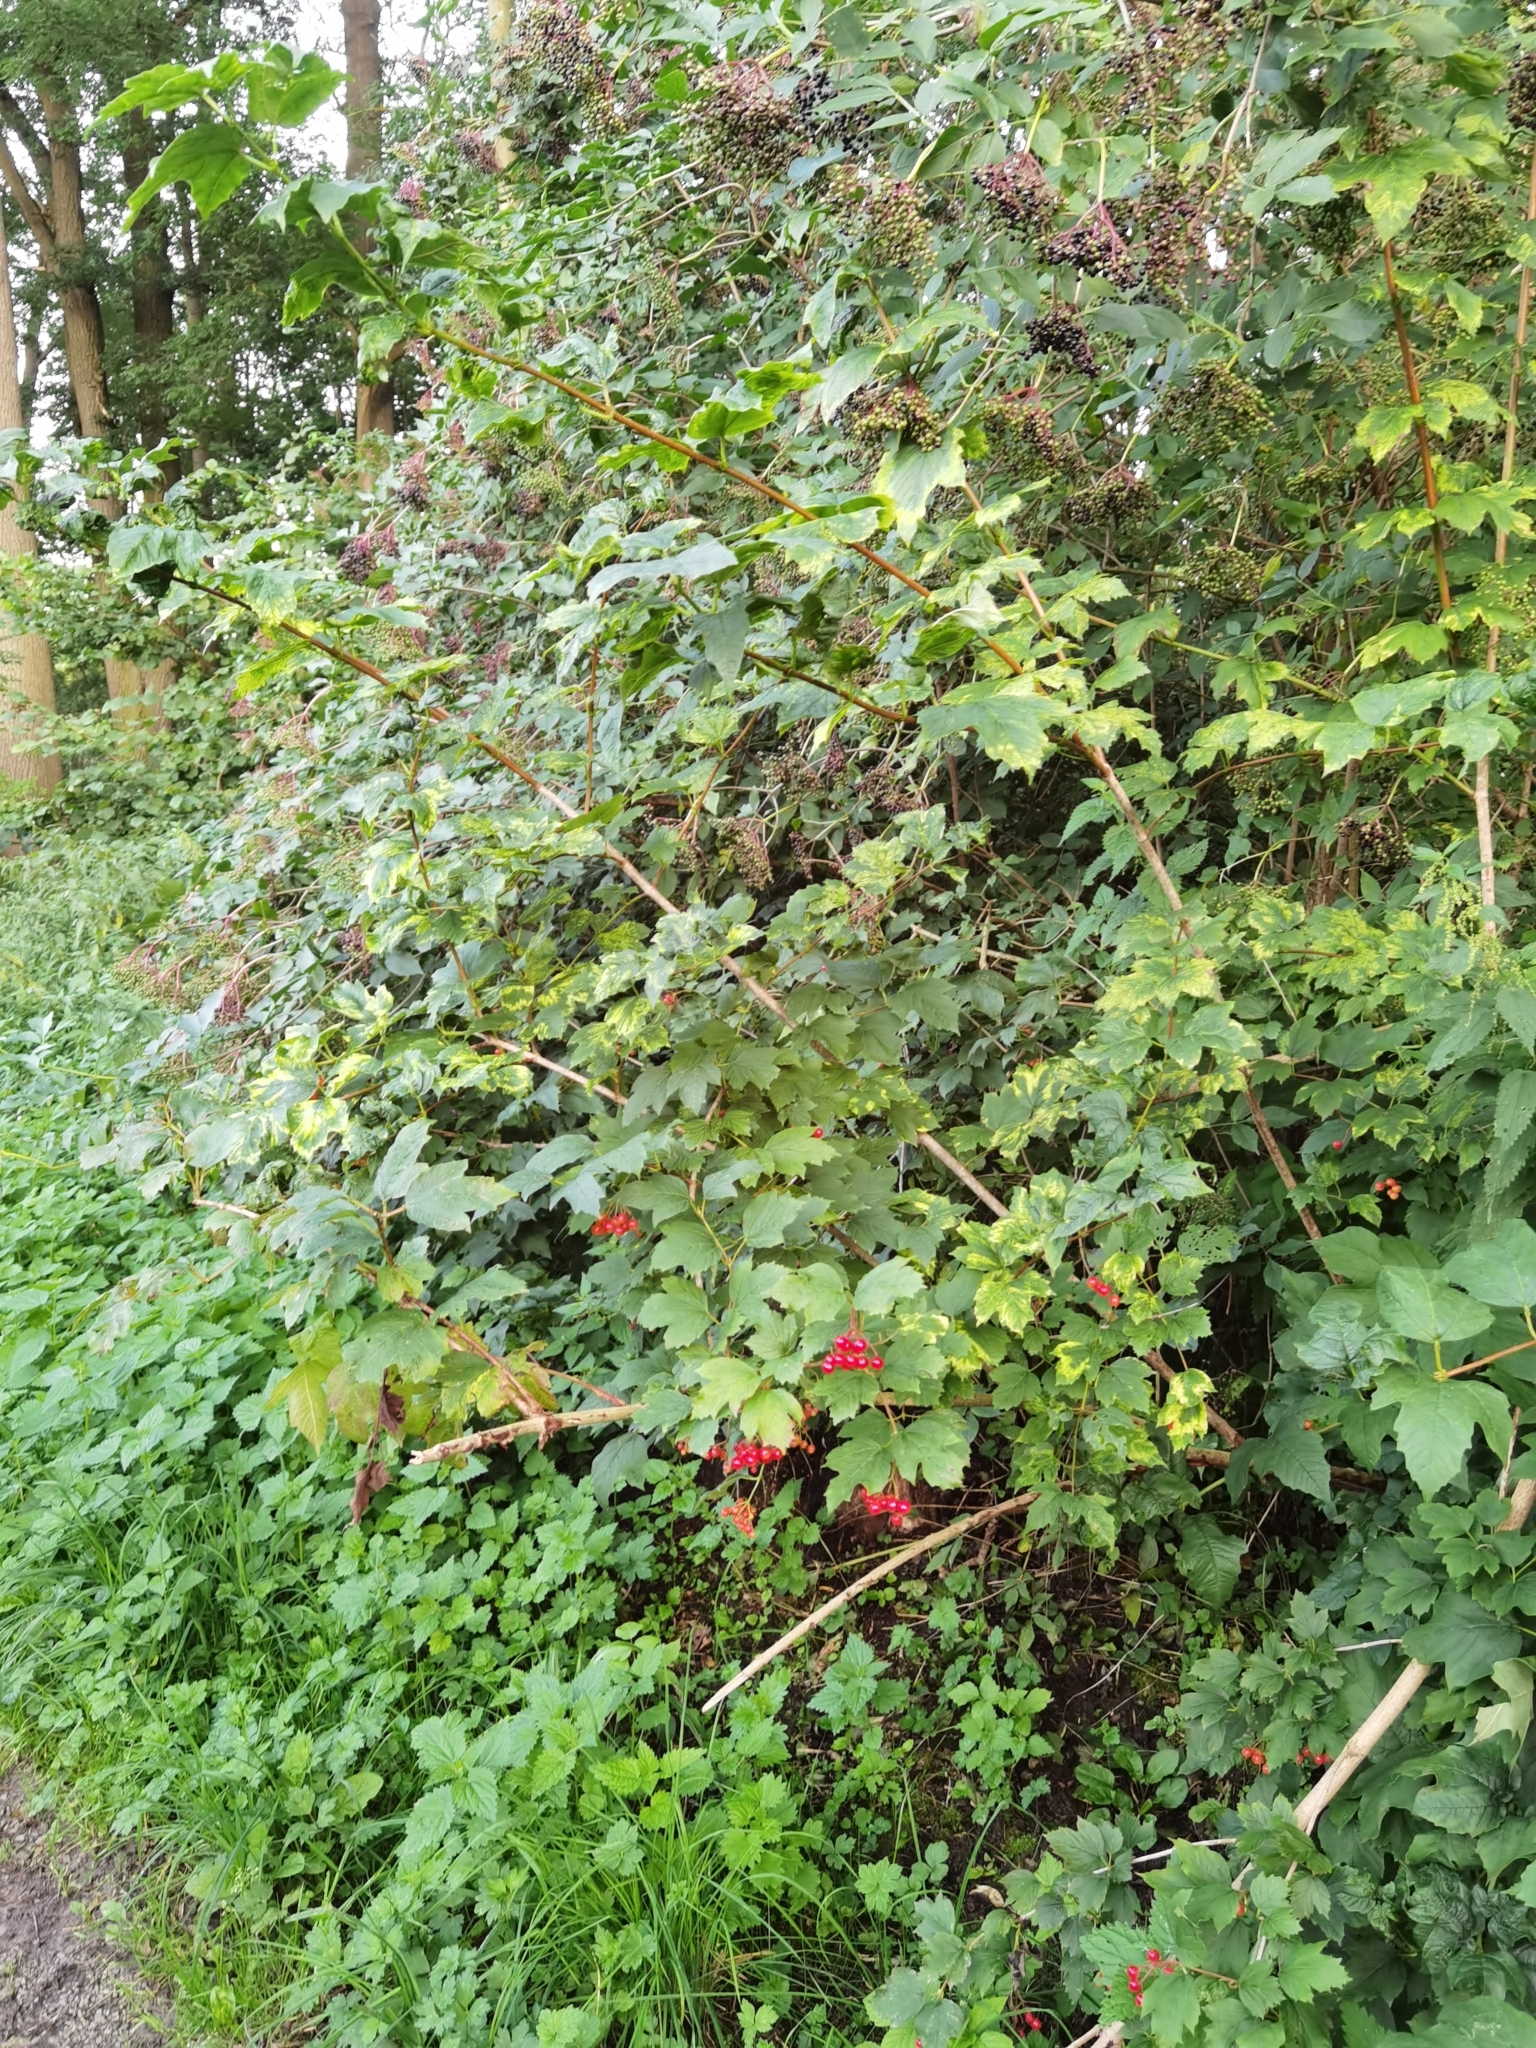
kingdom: Plantae
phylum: Tracheophyta
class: Magnoliopsida
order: Dipsacales
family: Viburnaceae
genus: Viburnum
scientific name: Viburnum opulus
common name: Guelder-rose
